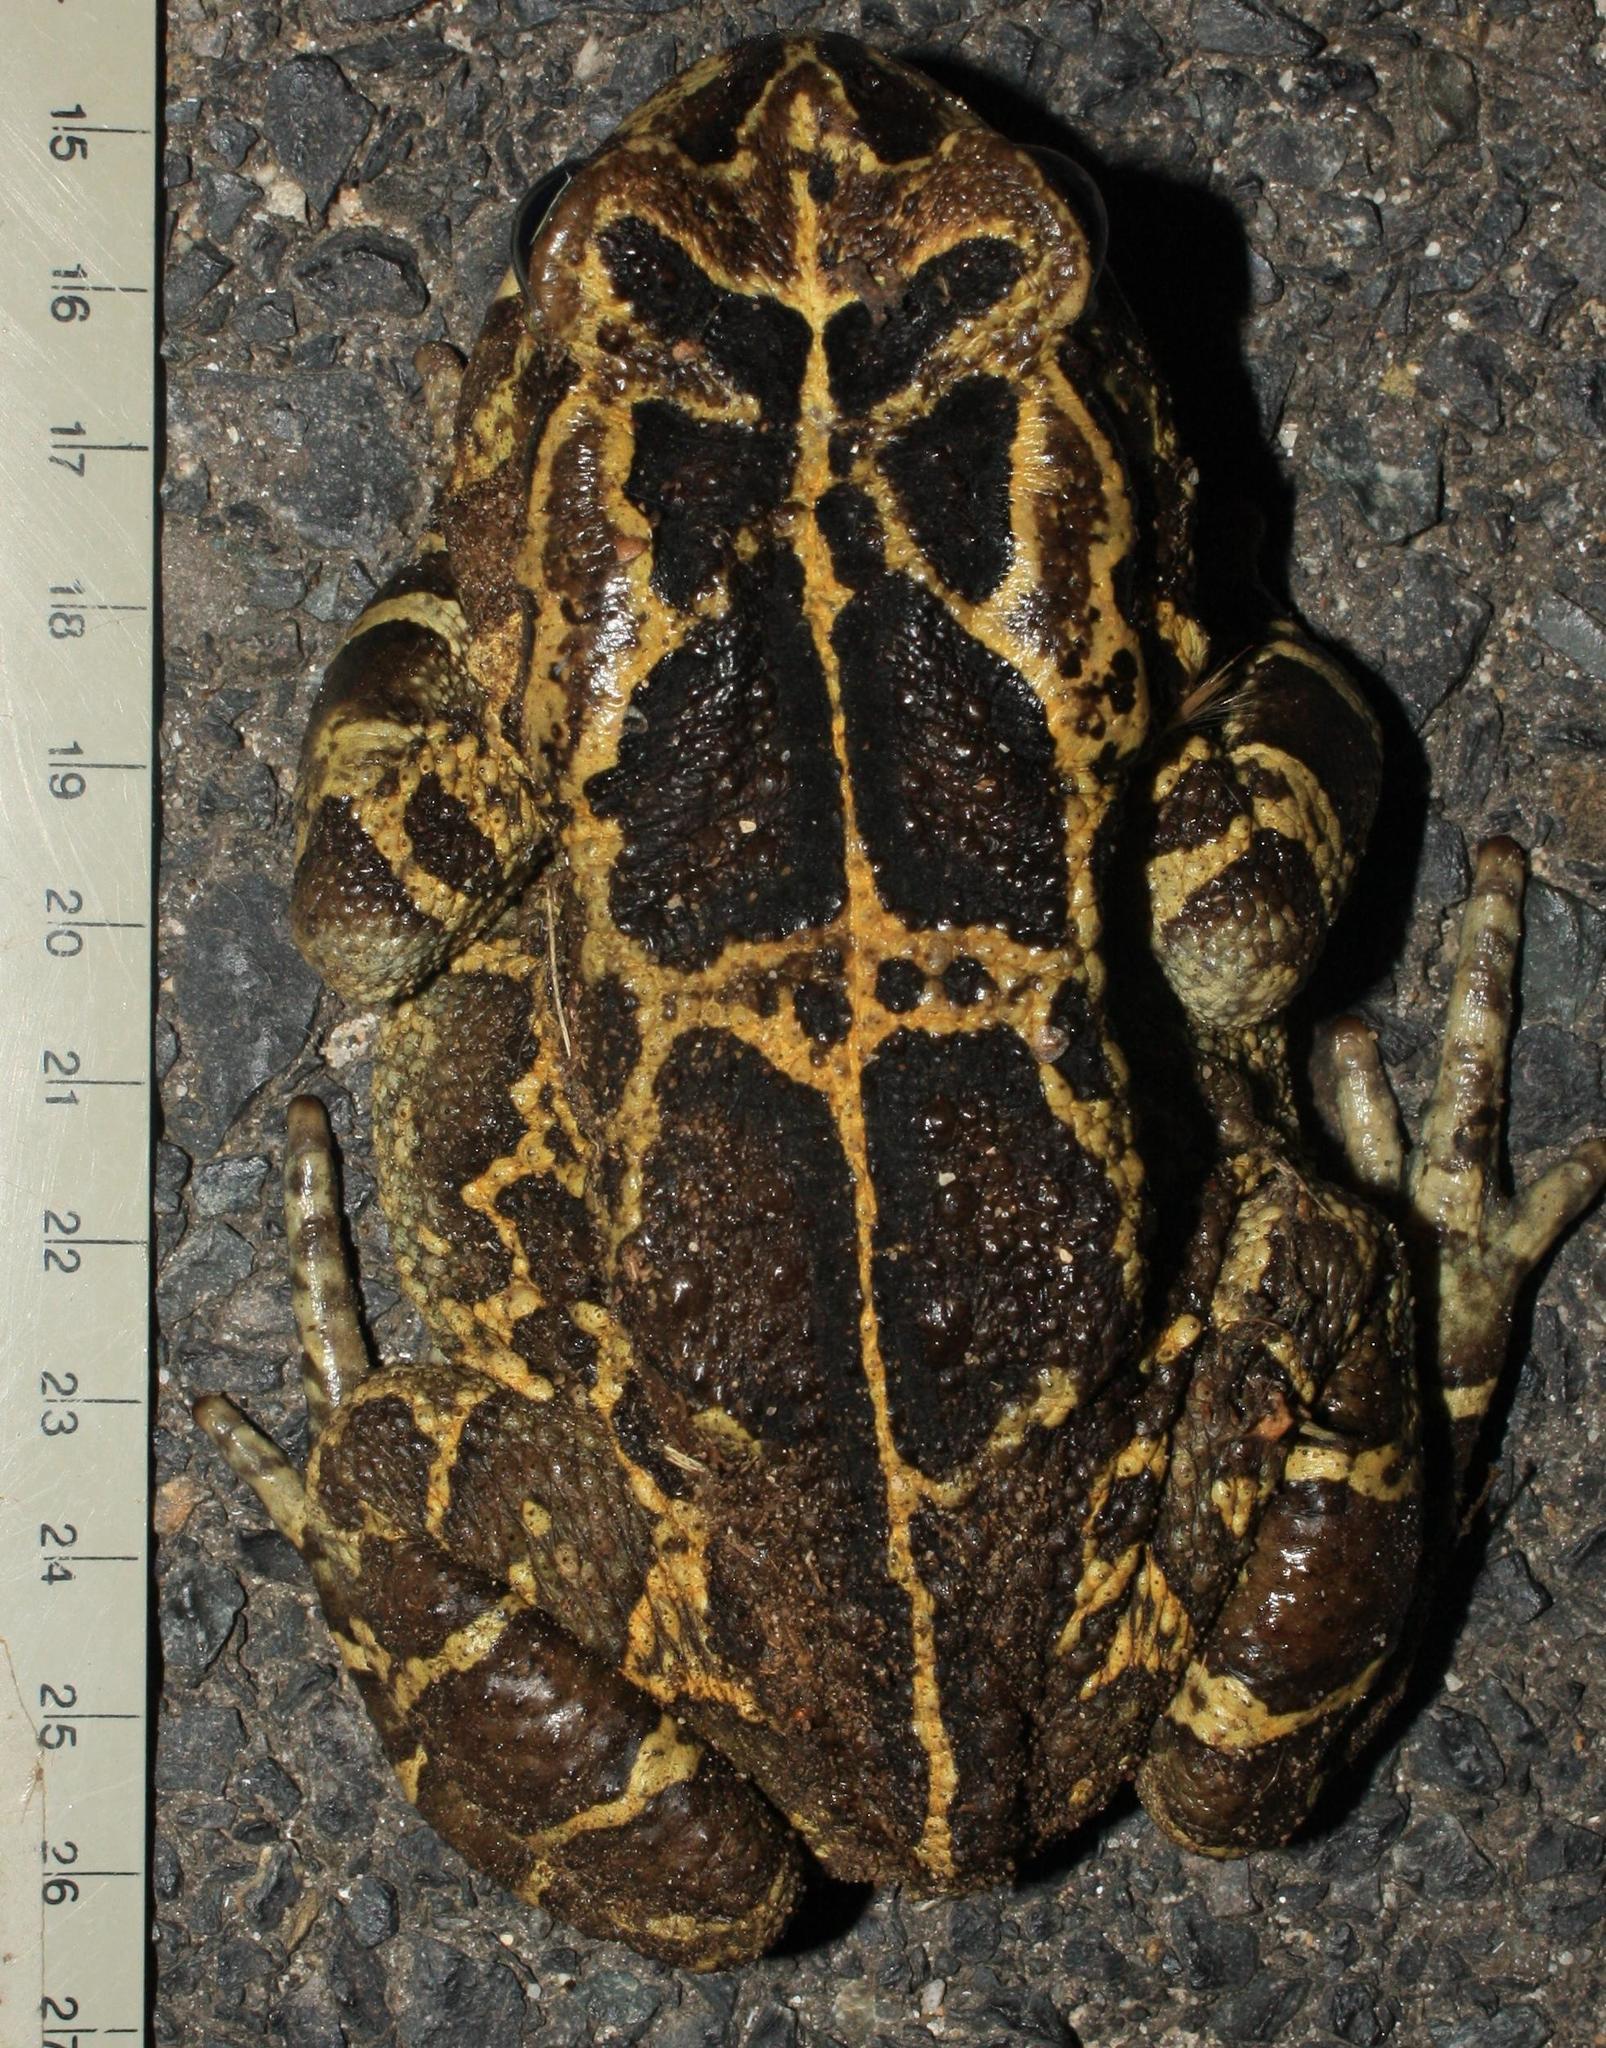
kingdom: Animalia
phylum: Chordata
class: Amphibia
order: Anura
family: Bufonidae
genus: Sclerophrys
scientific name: Sclerophrys pantherina
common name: Panther toad
